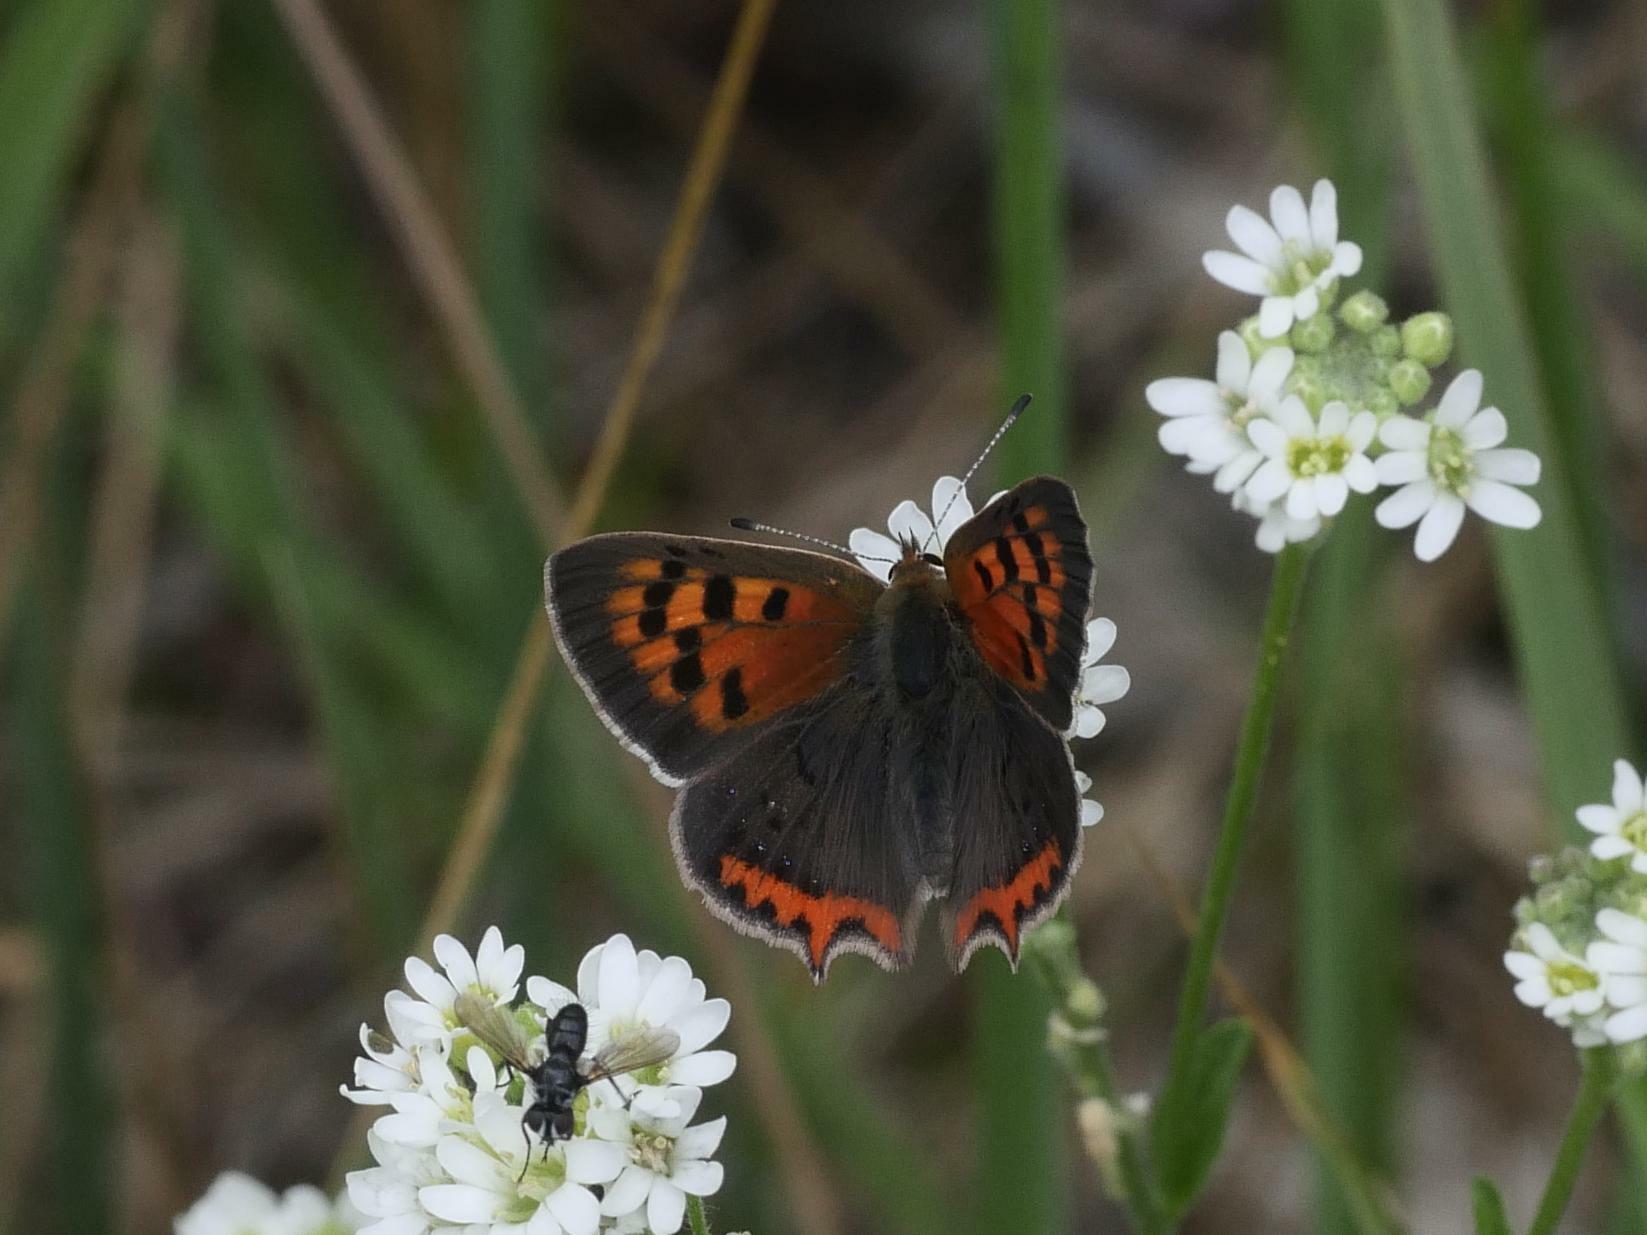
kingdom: Animalia
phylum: Arthropoda
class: Insecta
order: Lepidoptera
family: Lycaenidae
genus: Lycaena
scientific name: Lycaena phlaeas
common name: Small copper
